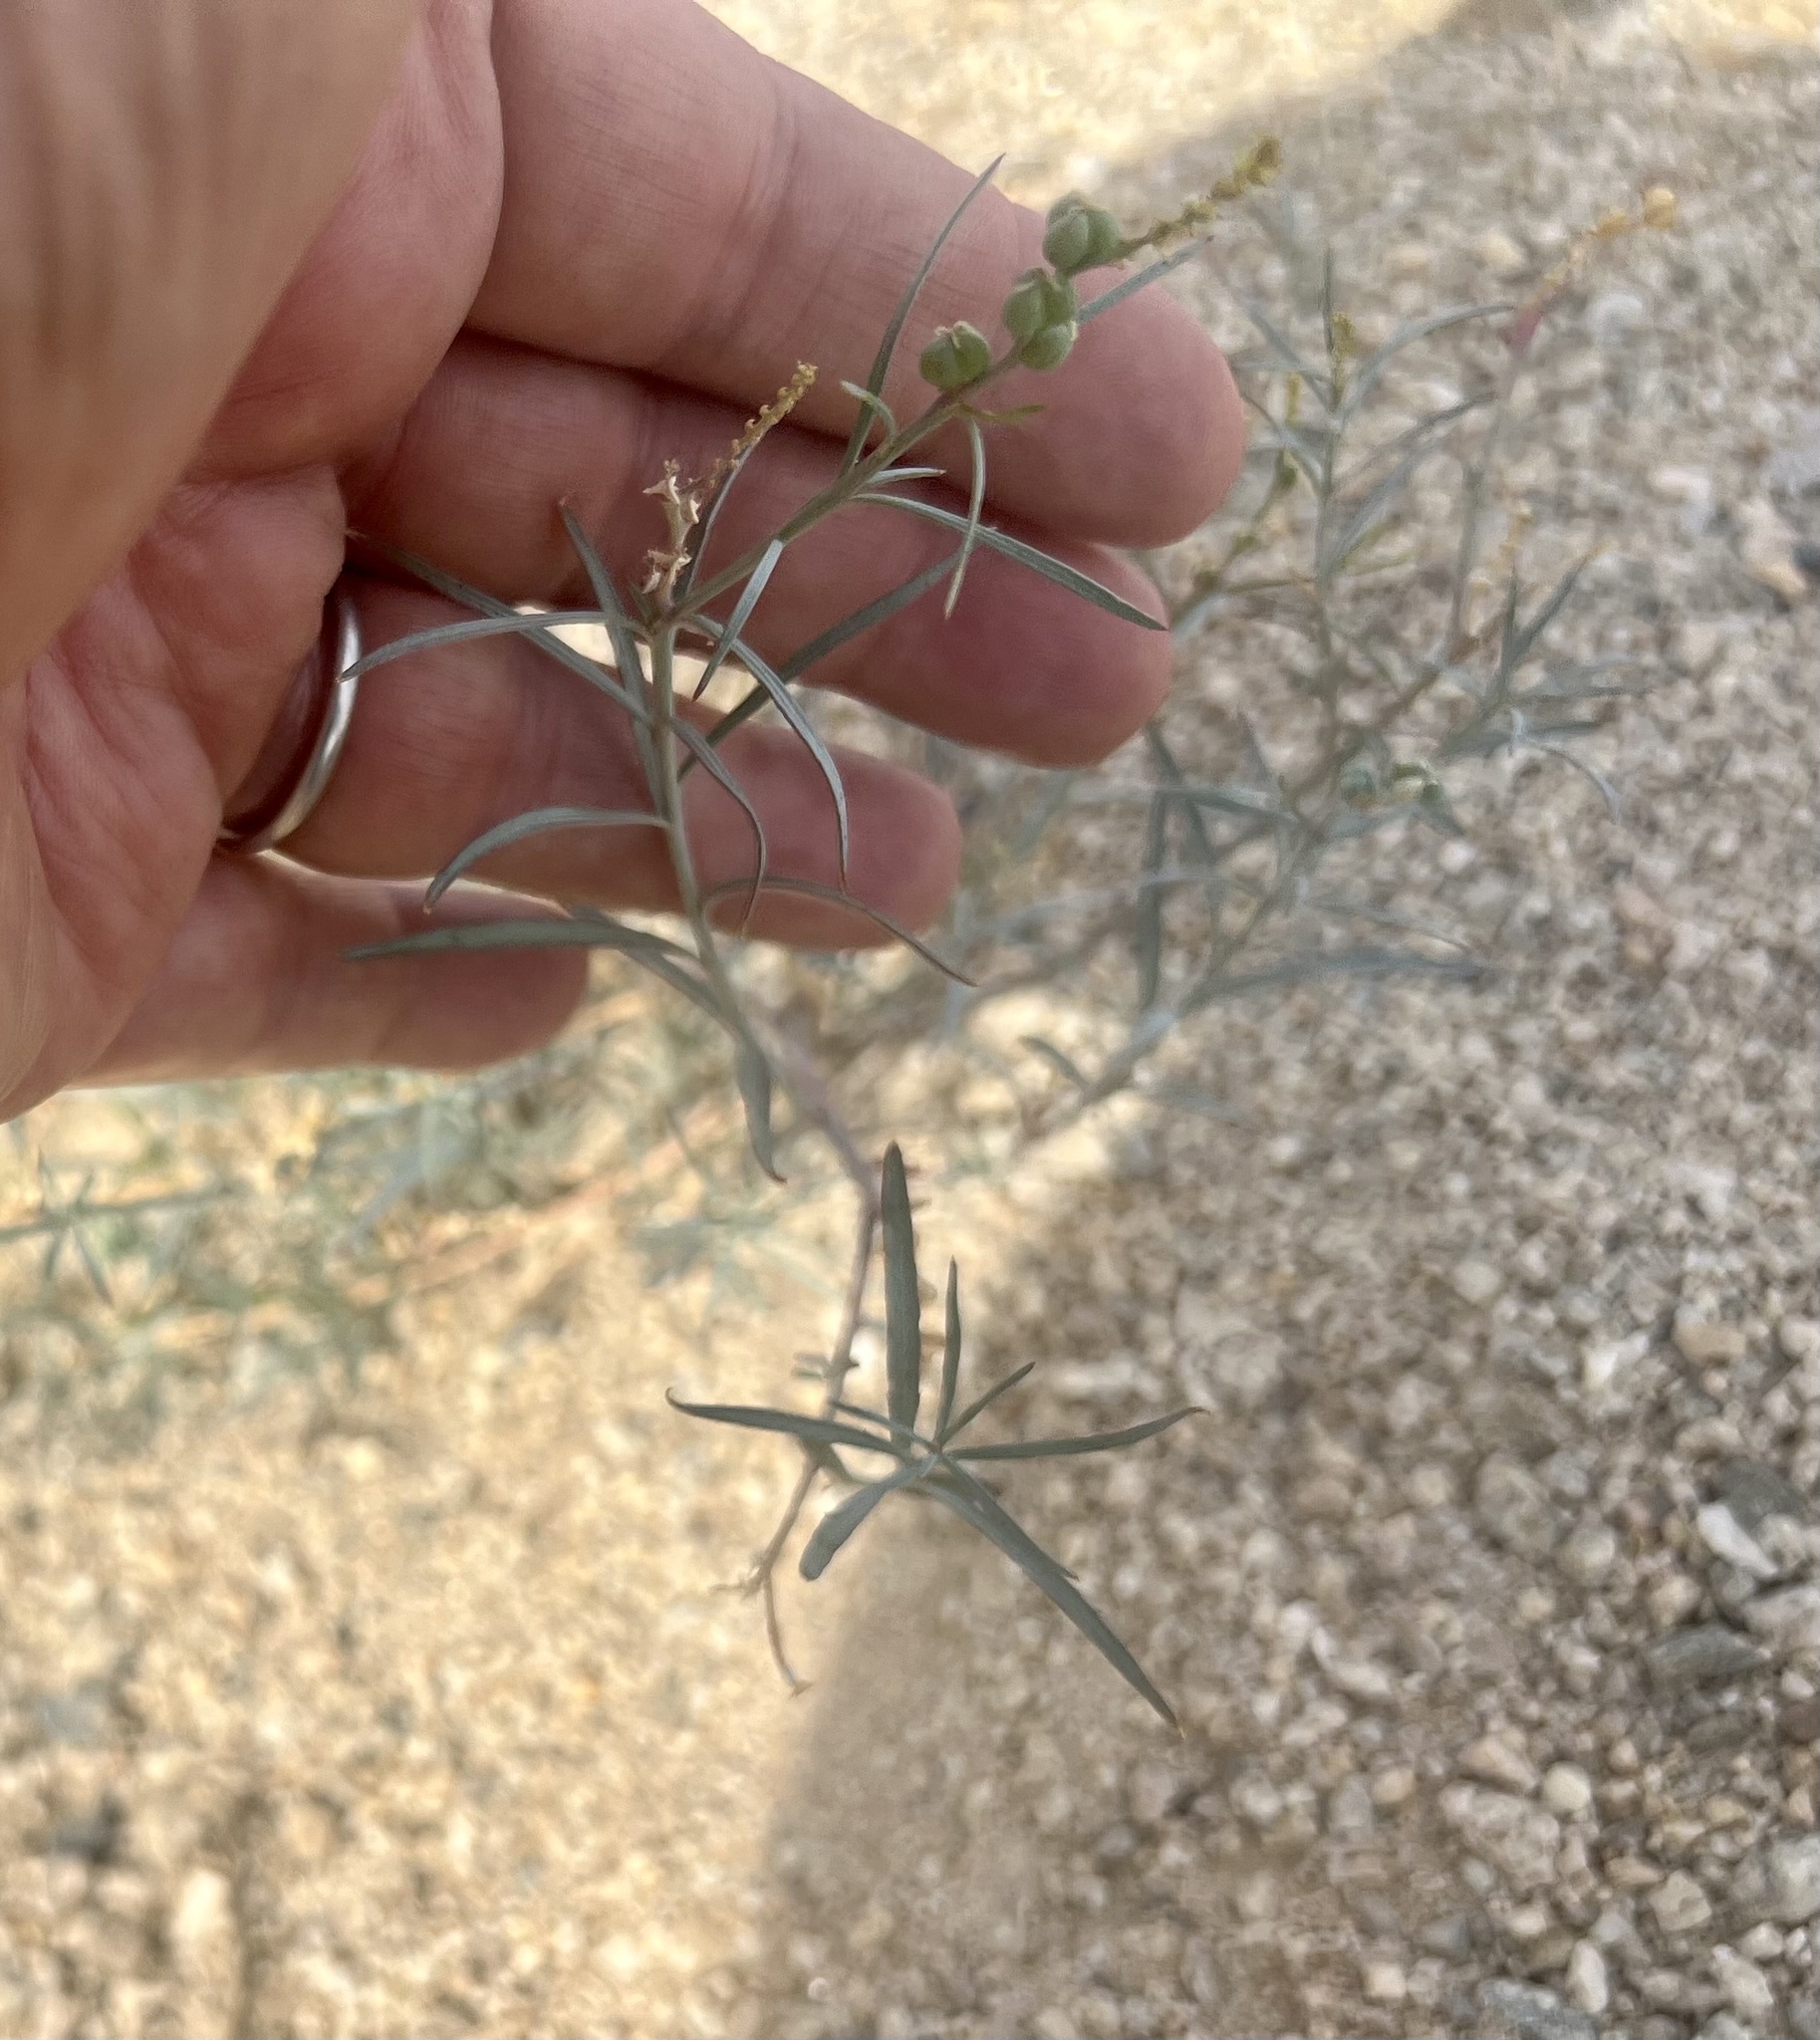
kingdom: Plantae
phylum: Tracheophyta
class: Magnoliopsida
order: Malpighiales
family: Euphorbiaceae
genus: Stillingia
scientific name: Stillingia linearifolia
